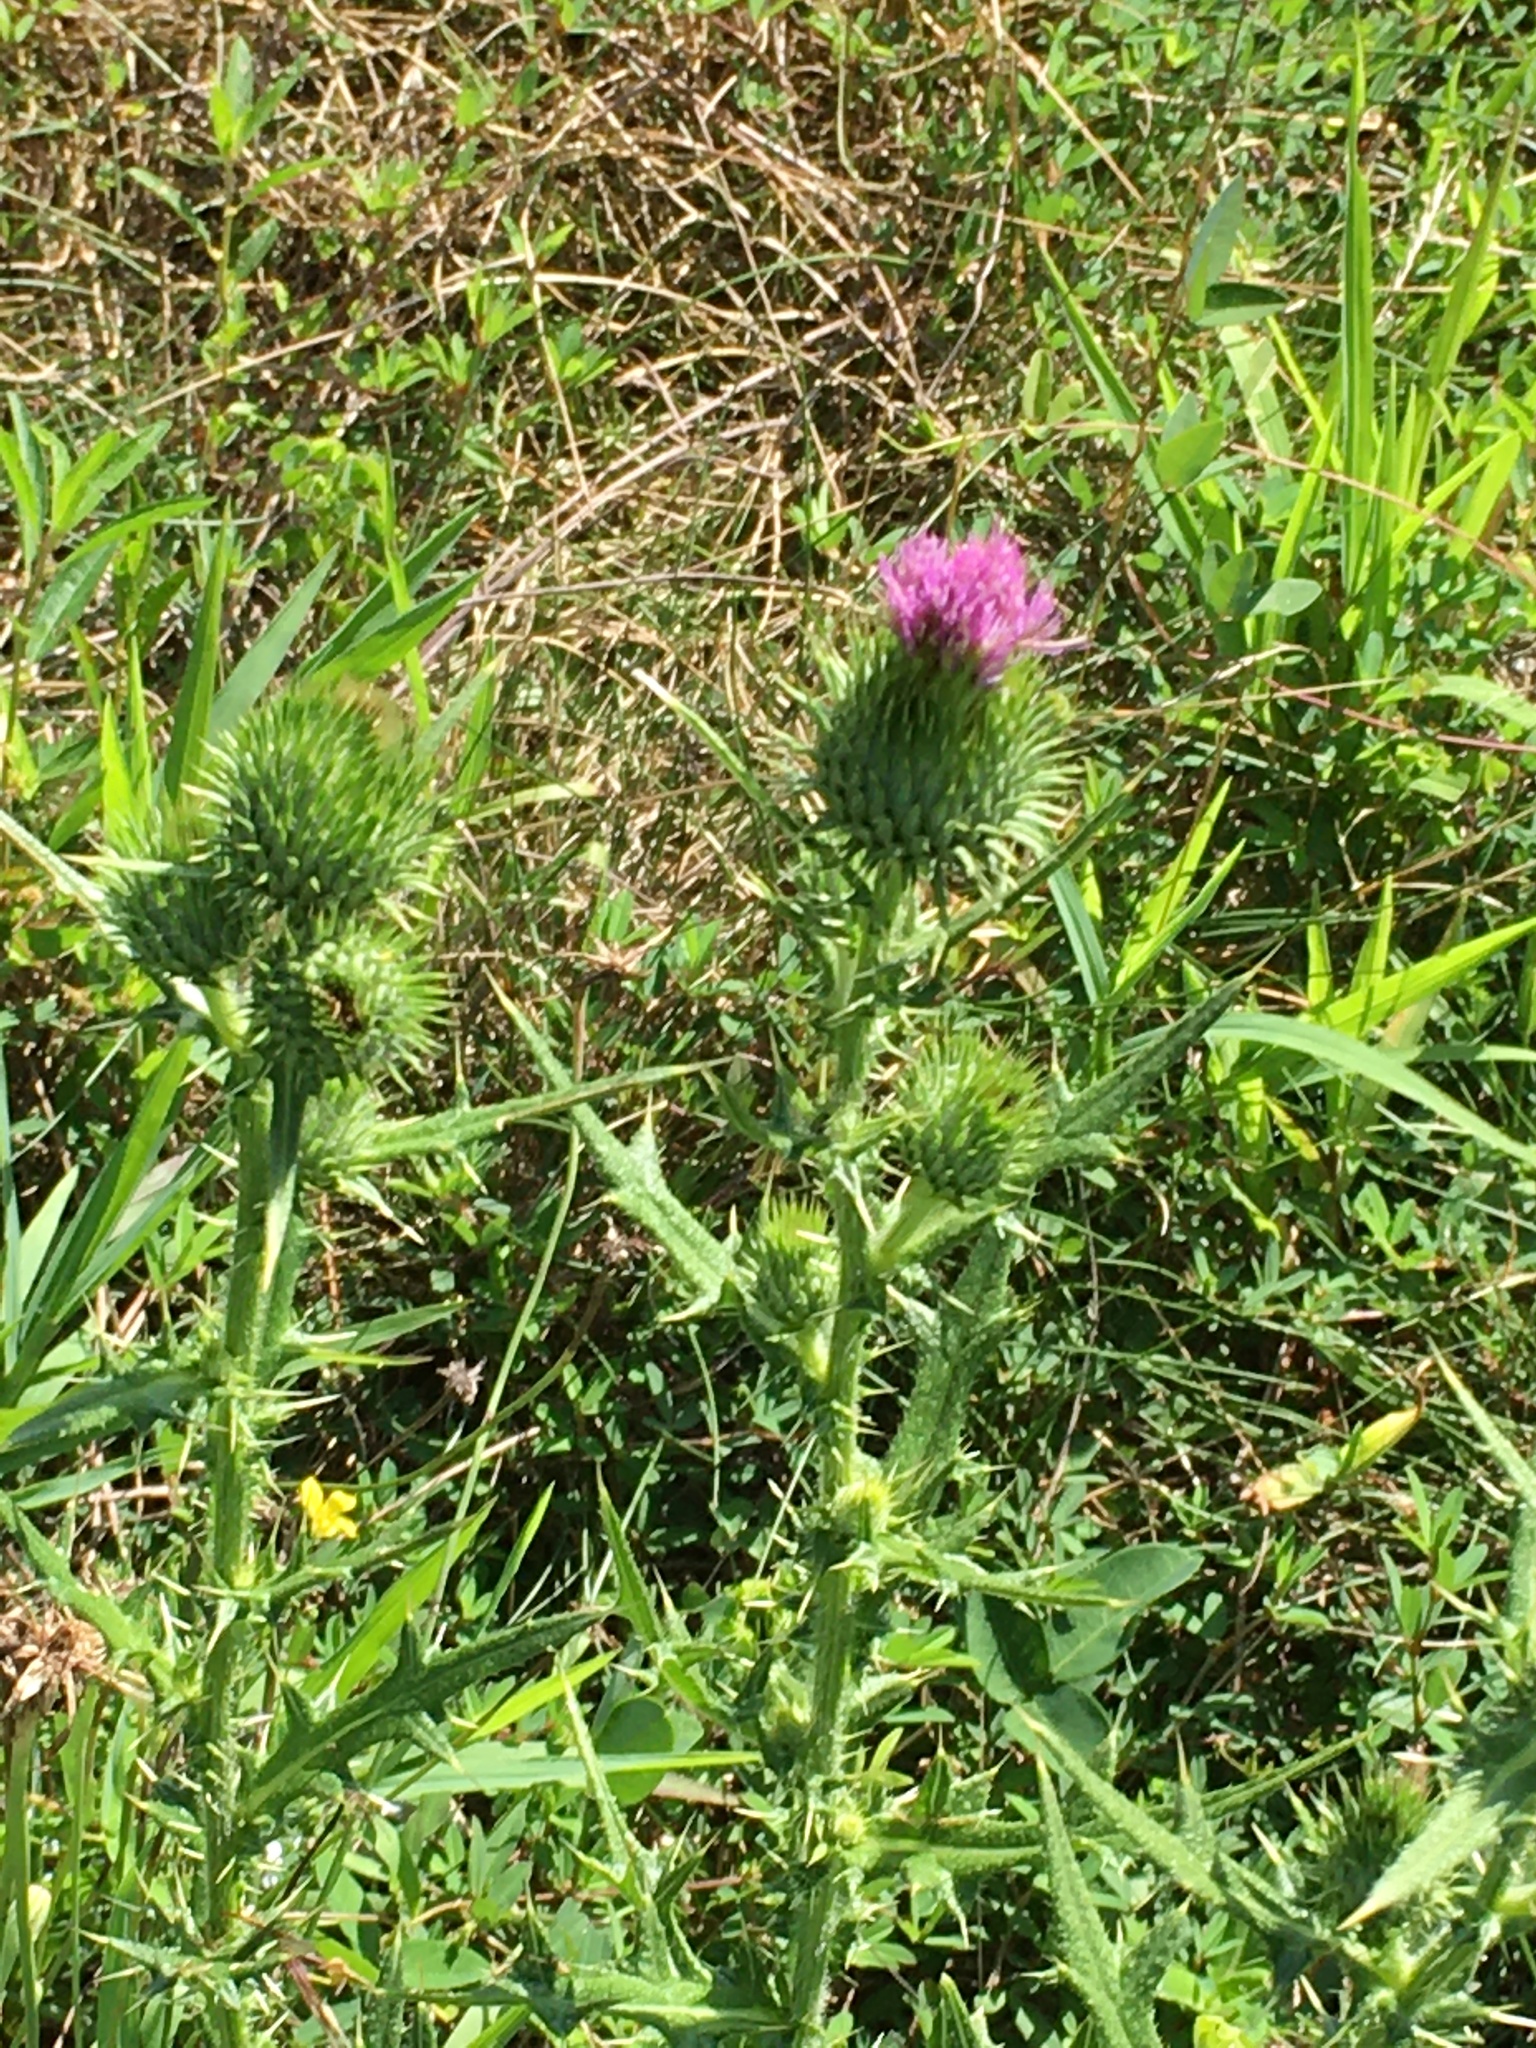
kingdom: Plantae
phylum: Tracheophyta
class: Magnoliopsida
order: Asterales
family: Asteraceae
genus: Cirsium
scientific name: Cirsium vulgare
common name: Bull thistle
